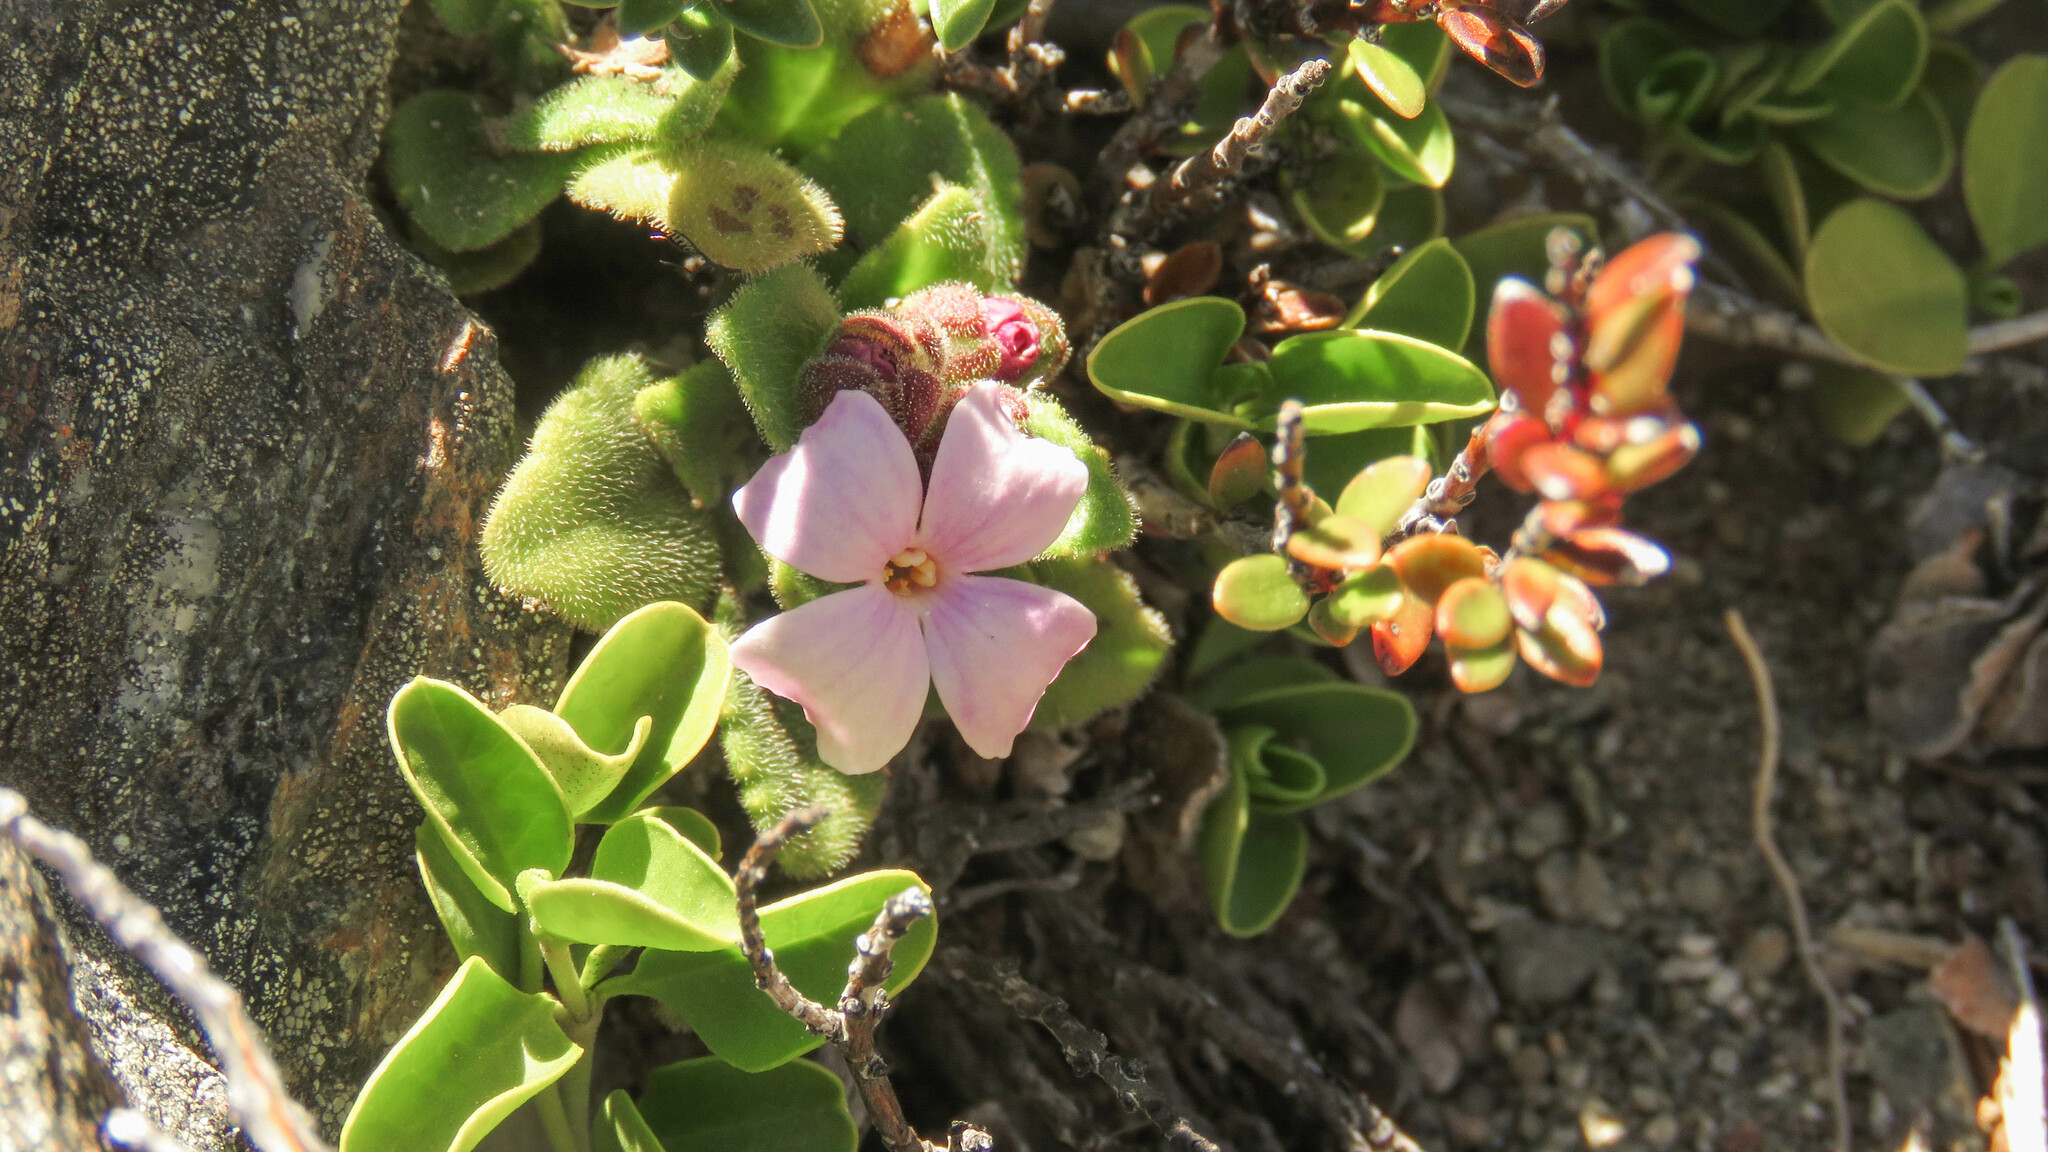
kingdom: Plantae
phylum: Tracheophyta
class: Magnoliopsida
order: Lamiales
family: Plantaginaceae
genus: Ourisia
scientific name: Ourisia fragrans
